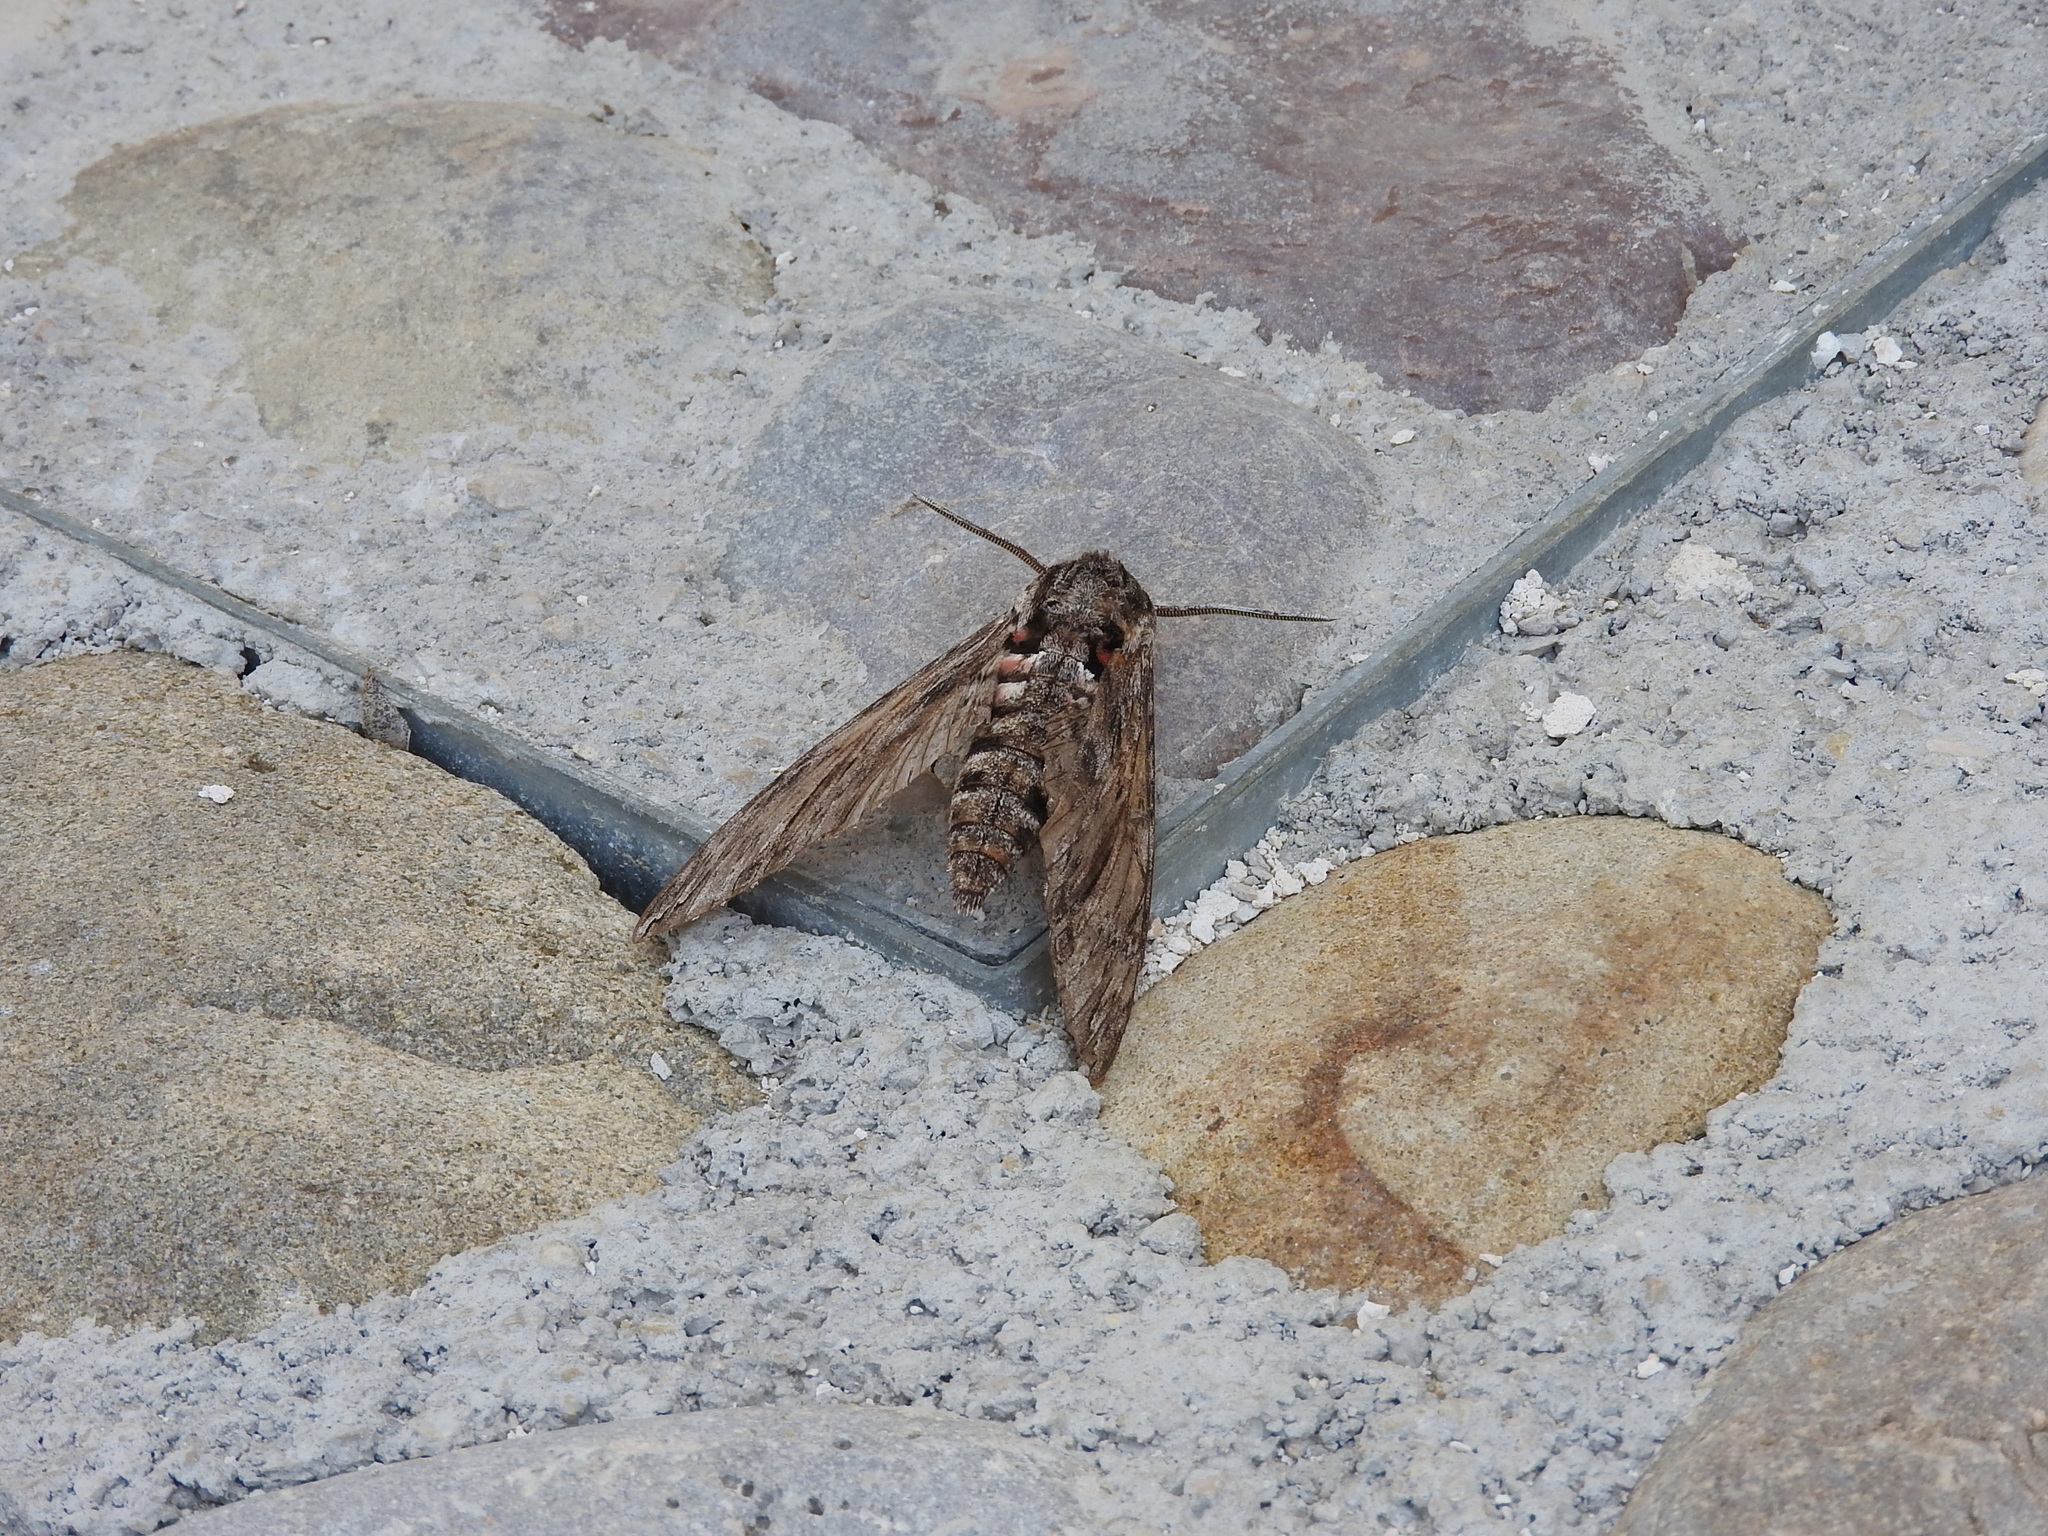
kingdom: Animalia
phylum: Arthropoda
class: Insecta
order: Lepidoptera
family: Sphingidae
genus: Agrius
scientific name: Agrius convolvuli
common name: Convolvulus hawkmoth
